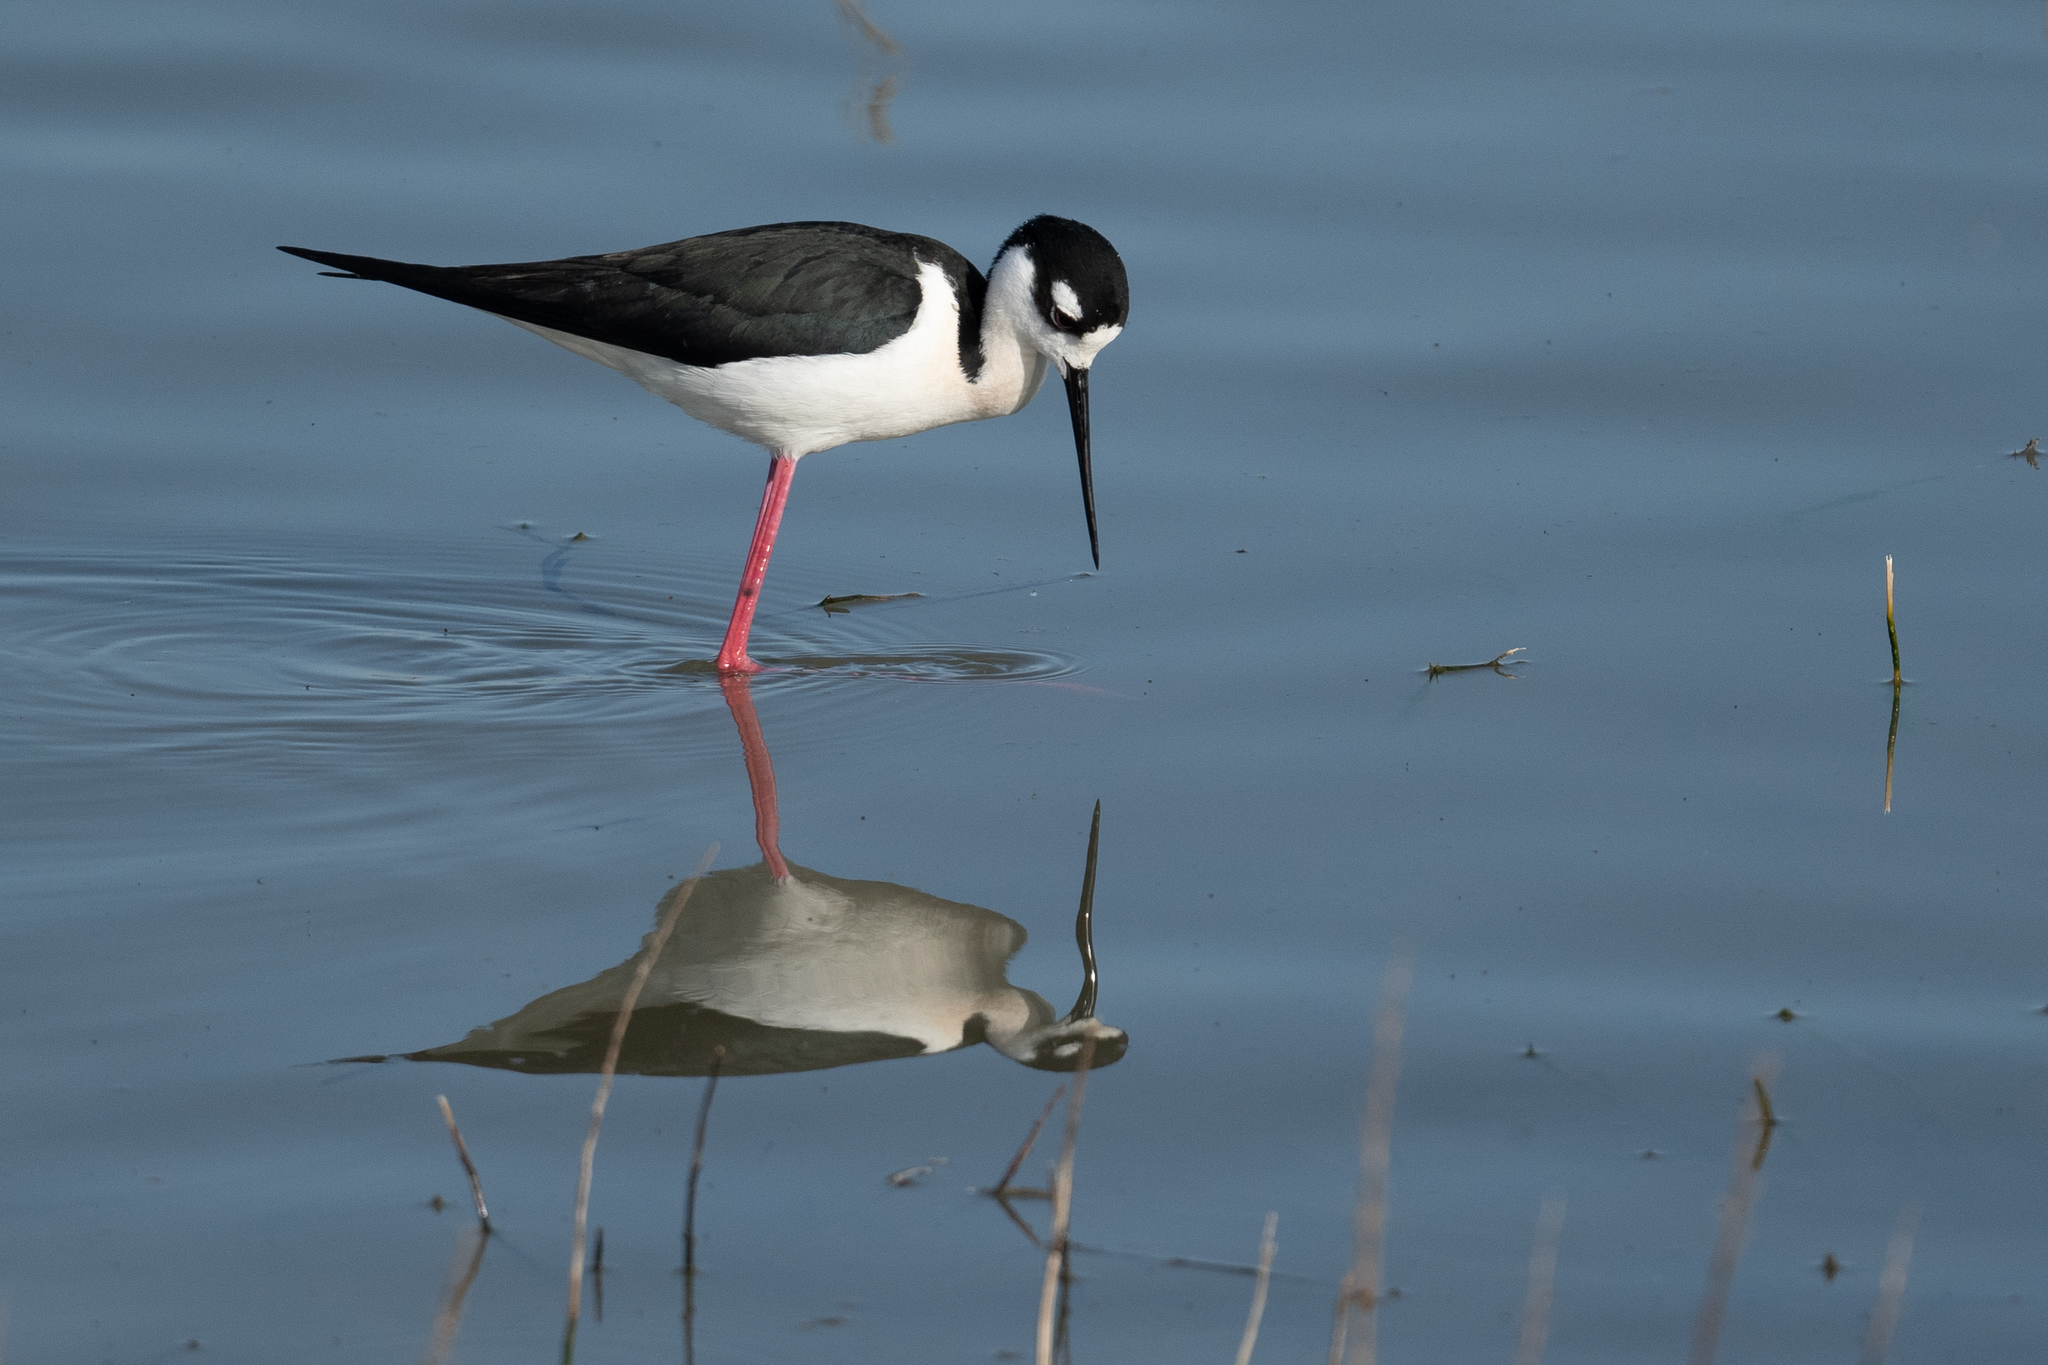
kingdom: Animalia
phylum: Chordata
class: Aves
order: Charadriiformes
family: Recurvirostridae
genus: Himantopus
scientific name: Himantopus mexicanus
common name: Black-necked stilt
